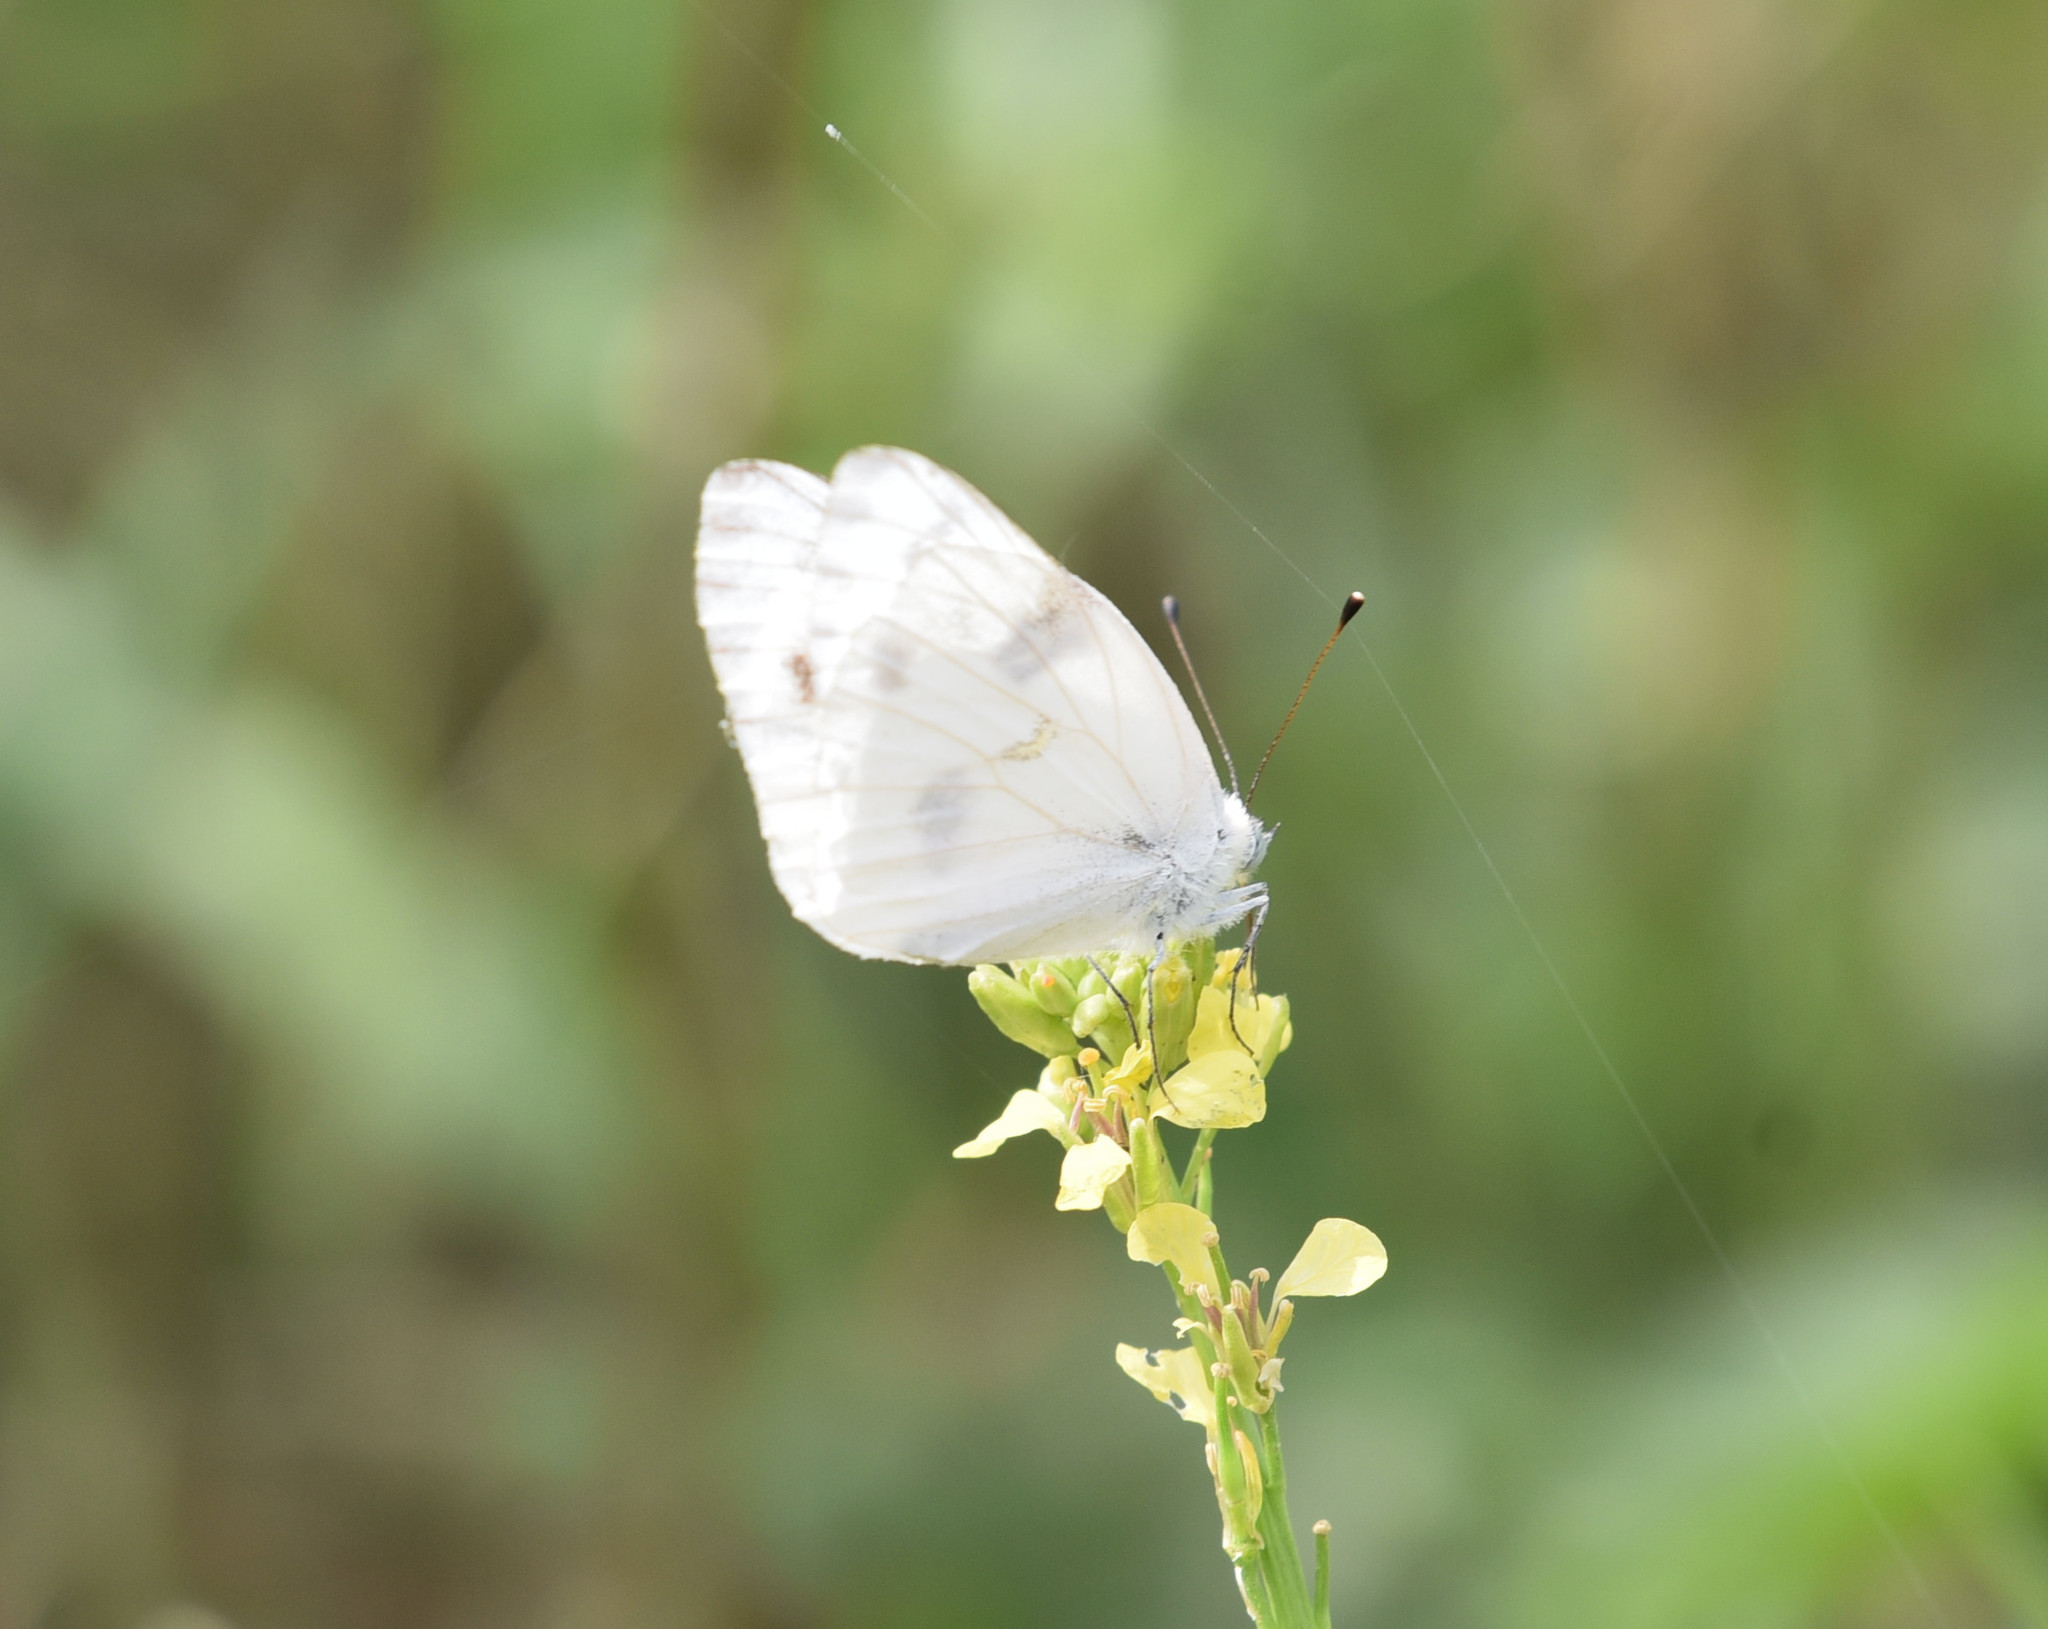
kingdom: Animalia
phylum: Arthropoda
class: Insecta
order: Lepidoptera
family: Pieridae
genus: Pontia
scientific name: Pontia protodice
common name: Checkered white
